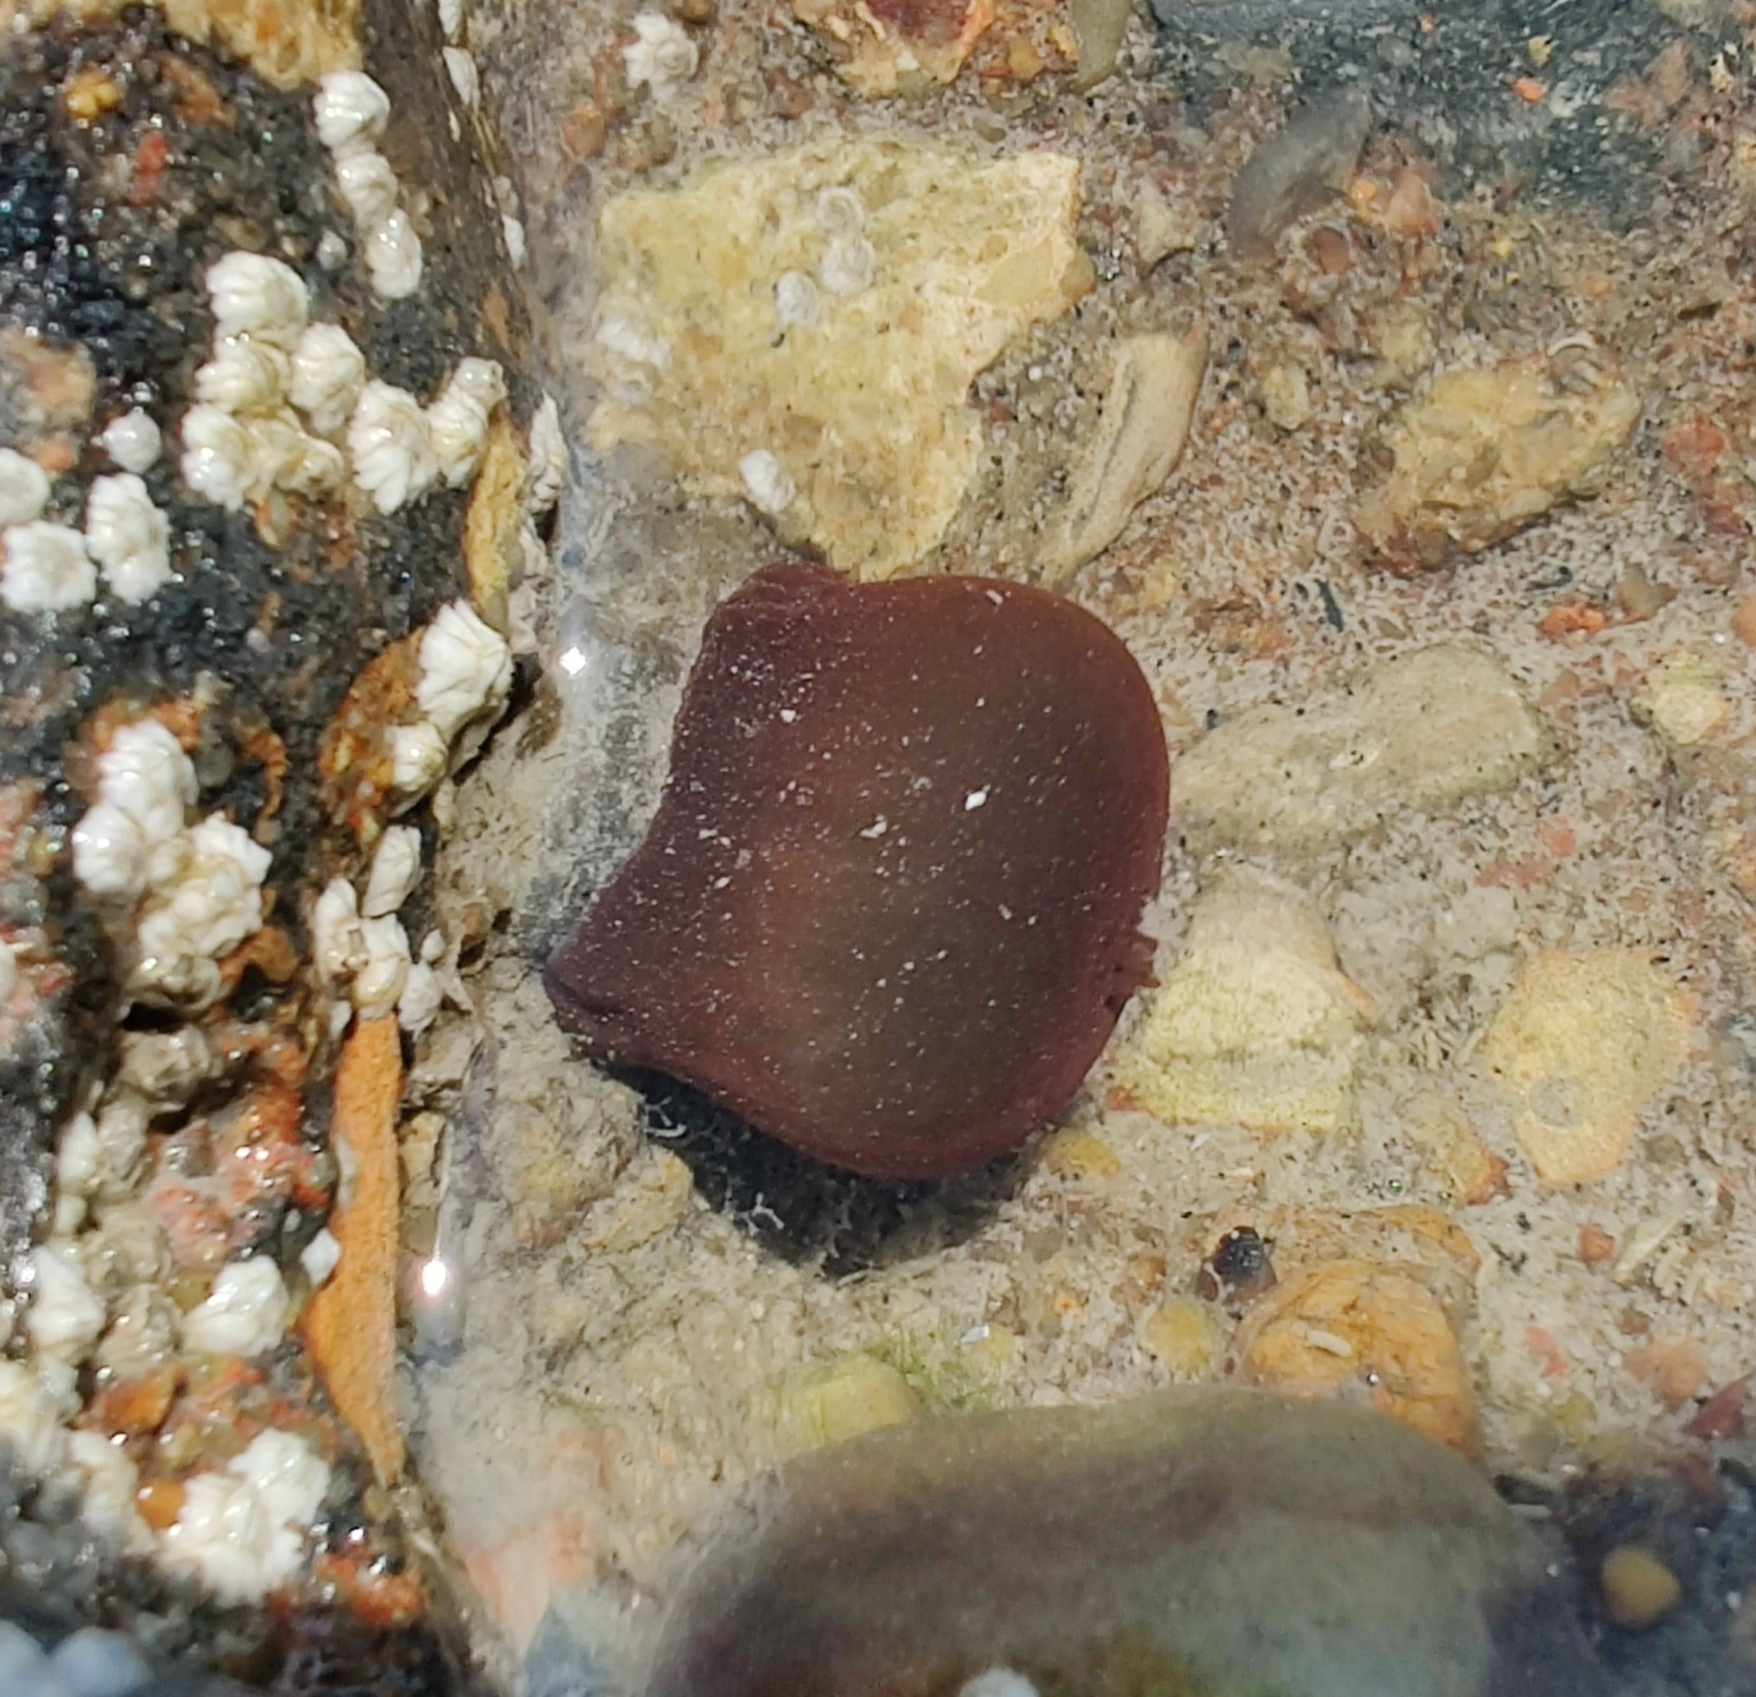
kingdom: Animalia
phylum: Cnidaria
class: Anthozoa
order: Actiniaria
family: Actiniidae
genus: Actinia
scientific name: Actinia equina
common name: Beadlet anemone
